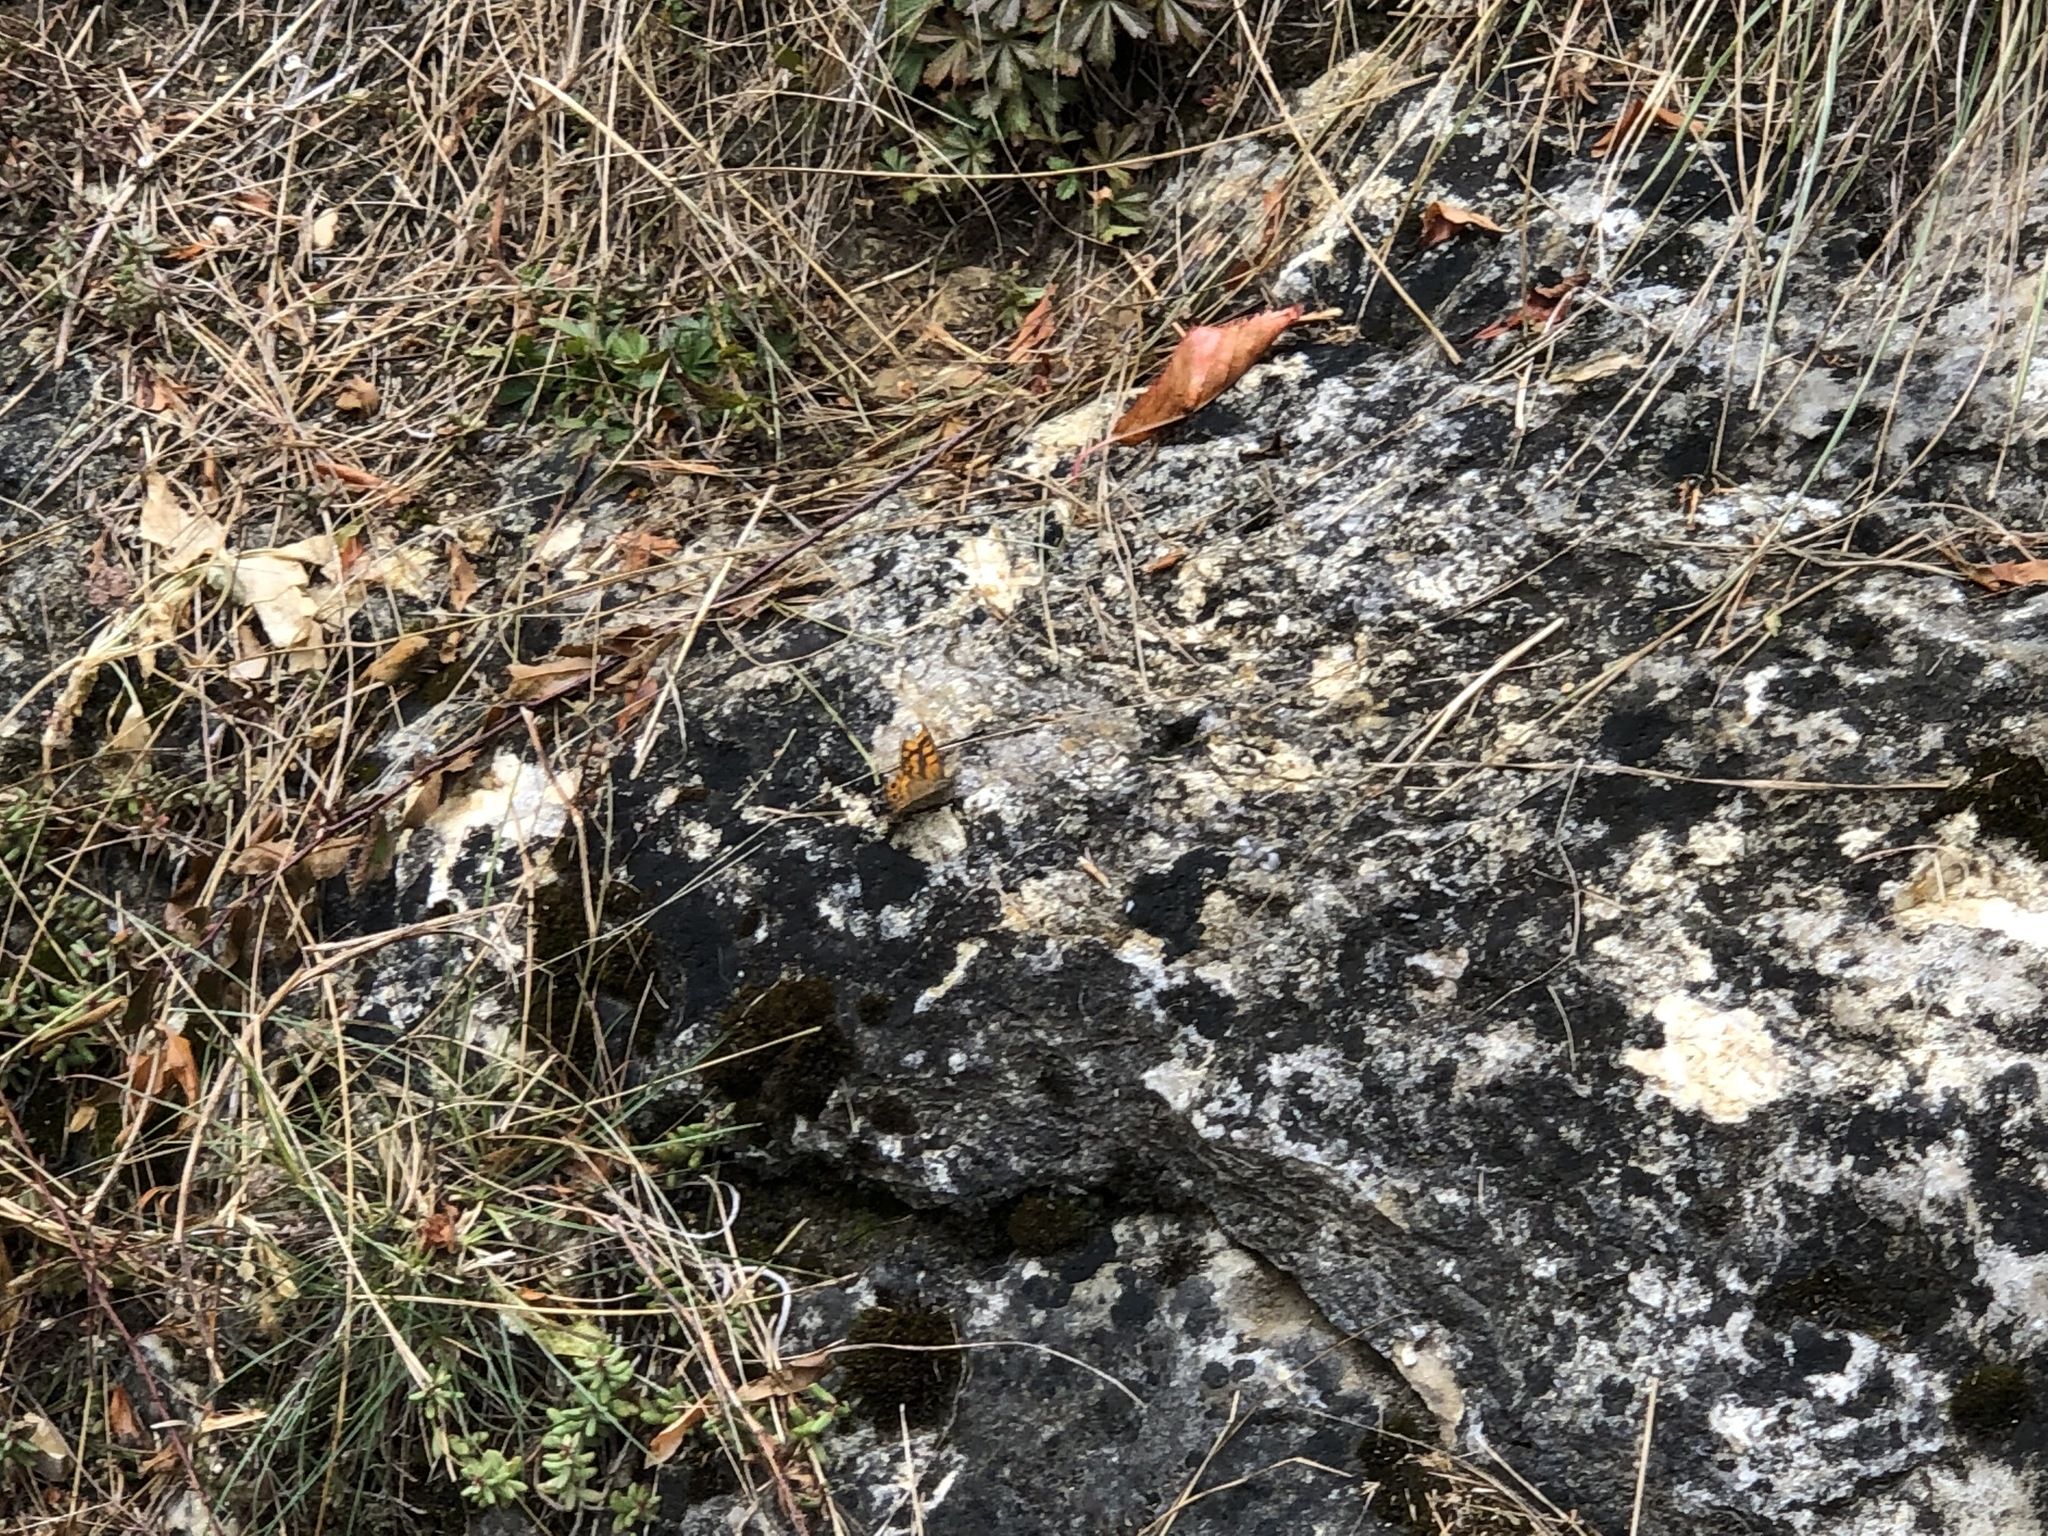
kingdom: Animalia
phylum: Arthropoda
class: Insecta
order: Lepidoptera
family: Nymphalidae
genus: Pararge
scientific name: Pararge Lasiommata megera
